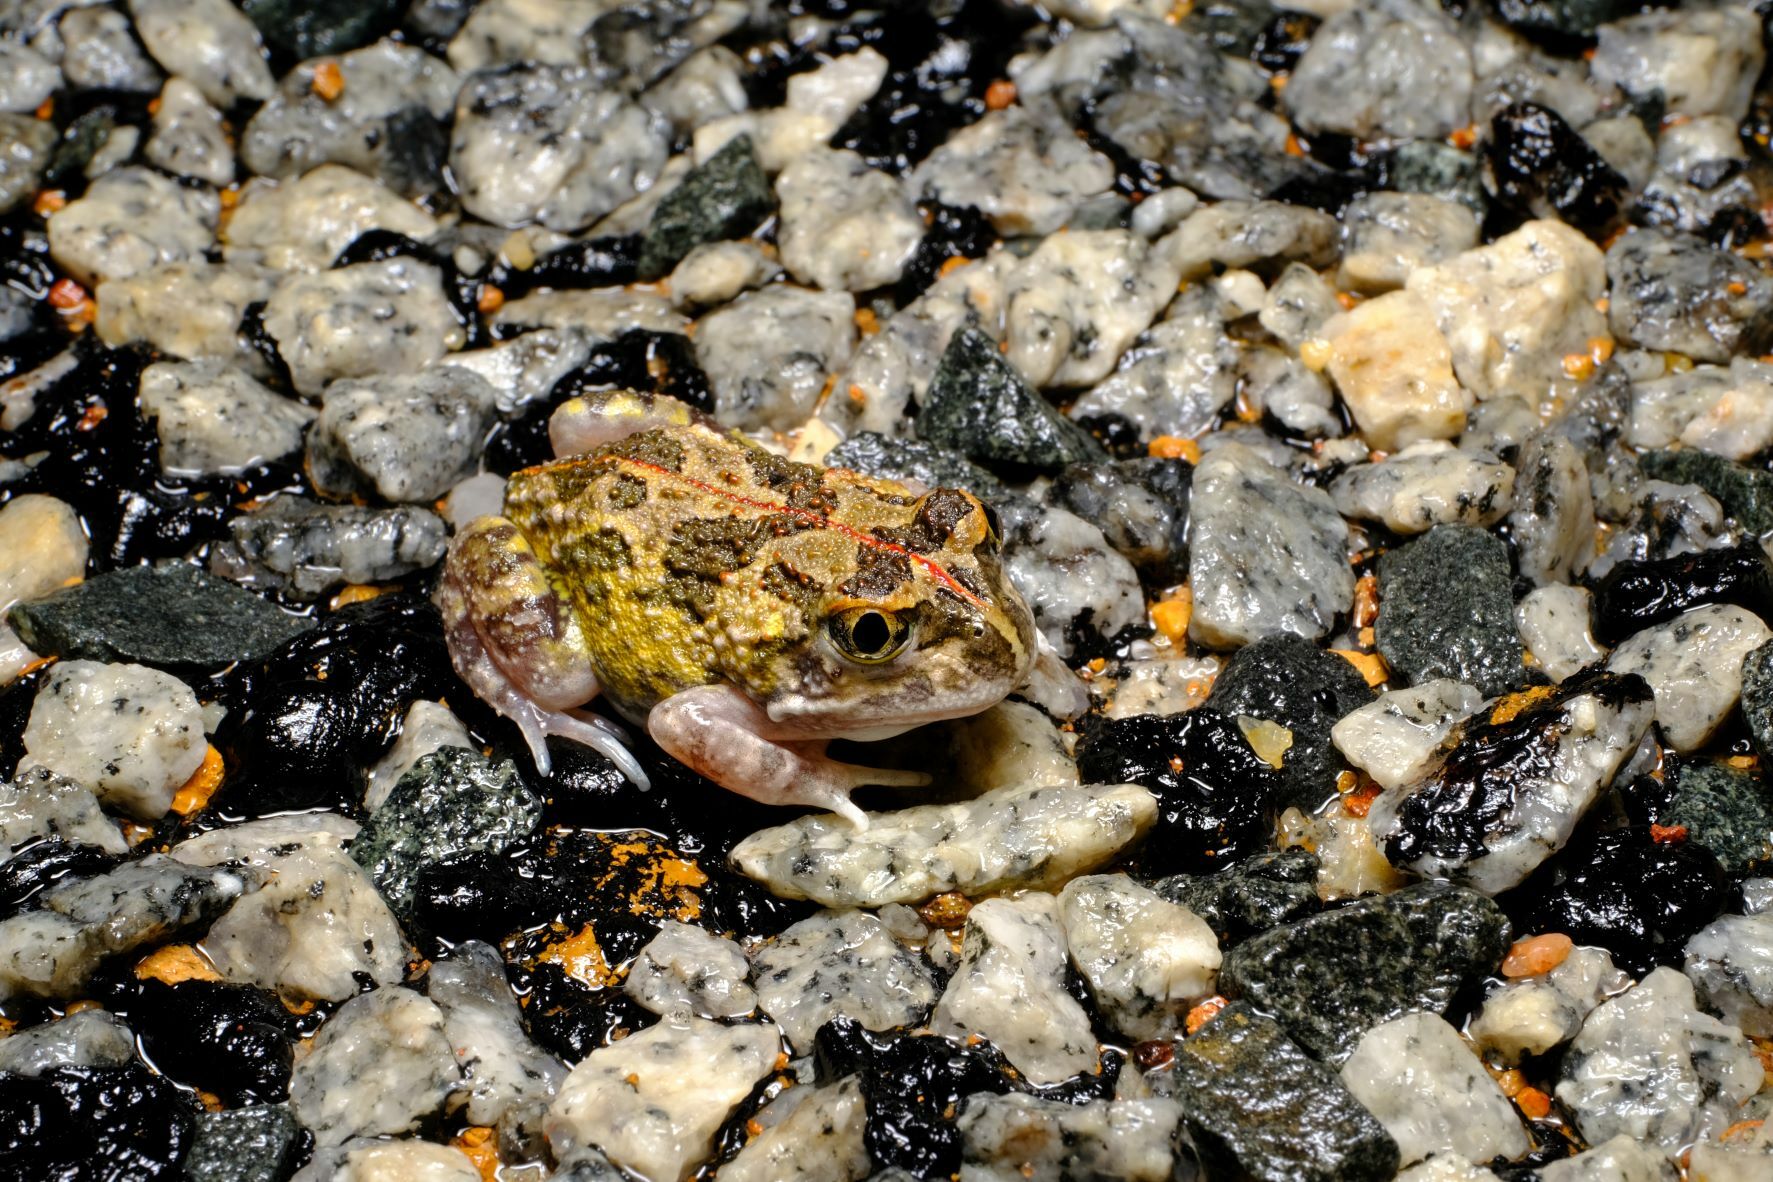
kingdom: Animalia
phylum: Chordata
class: Amphibia
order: Anura
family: Limnodynastidae
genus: Neobatrachus
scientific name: Neobatrachus pelobatoides
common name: Humming frog
